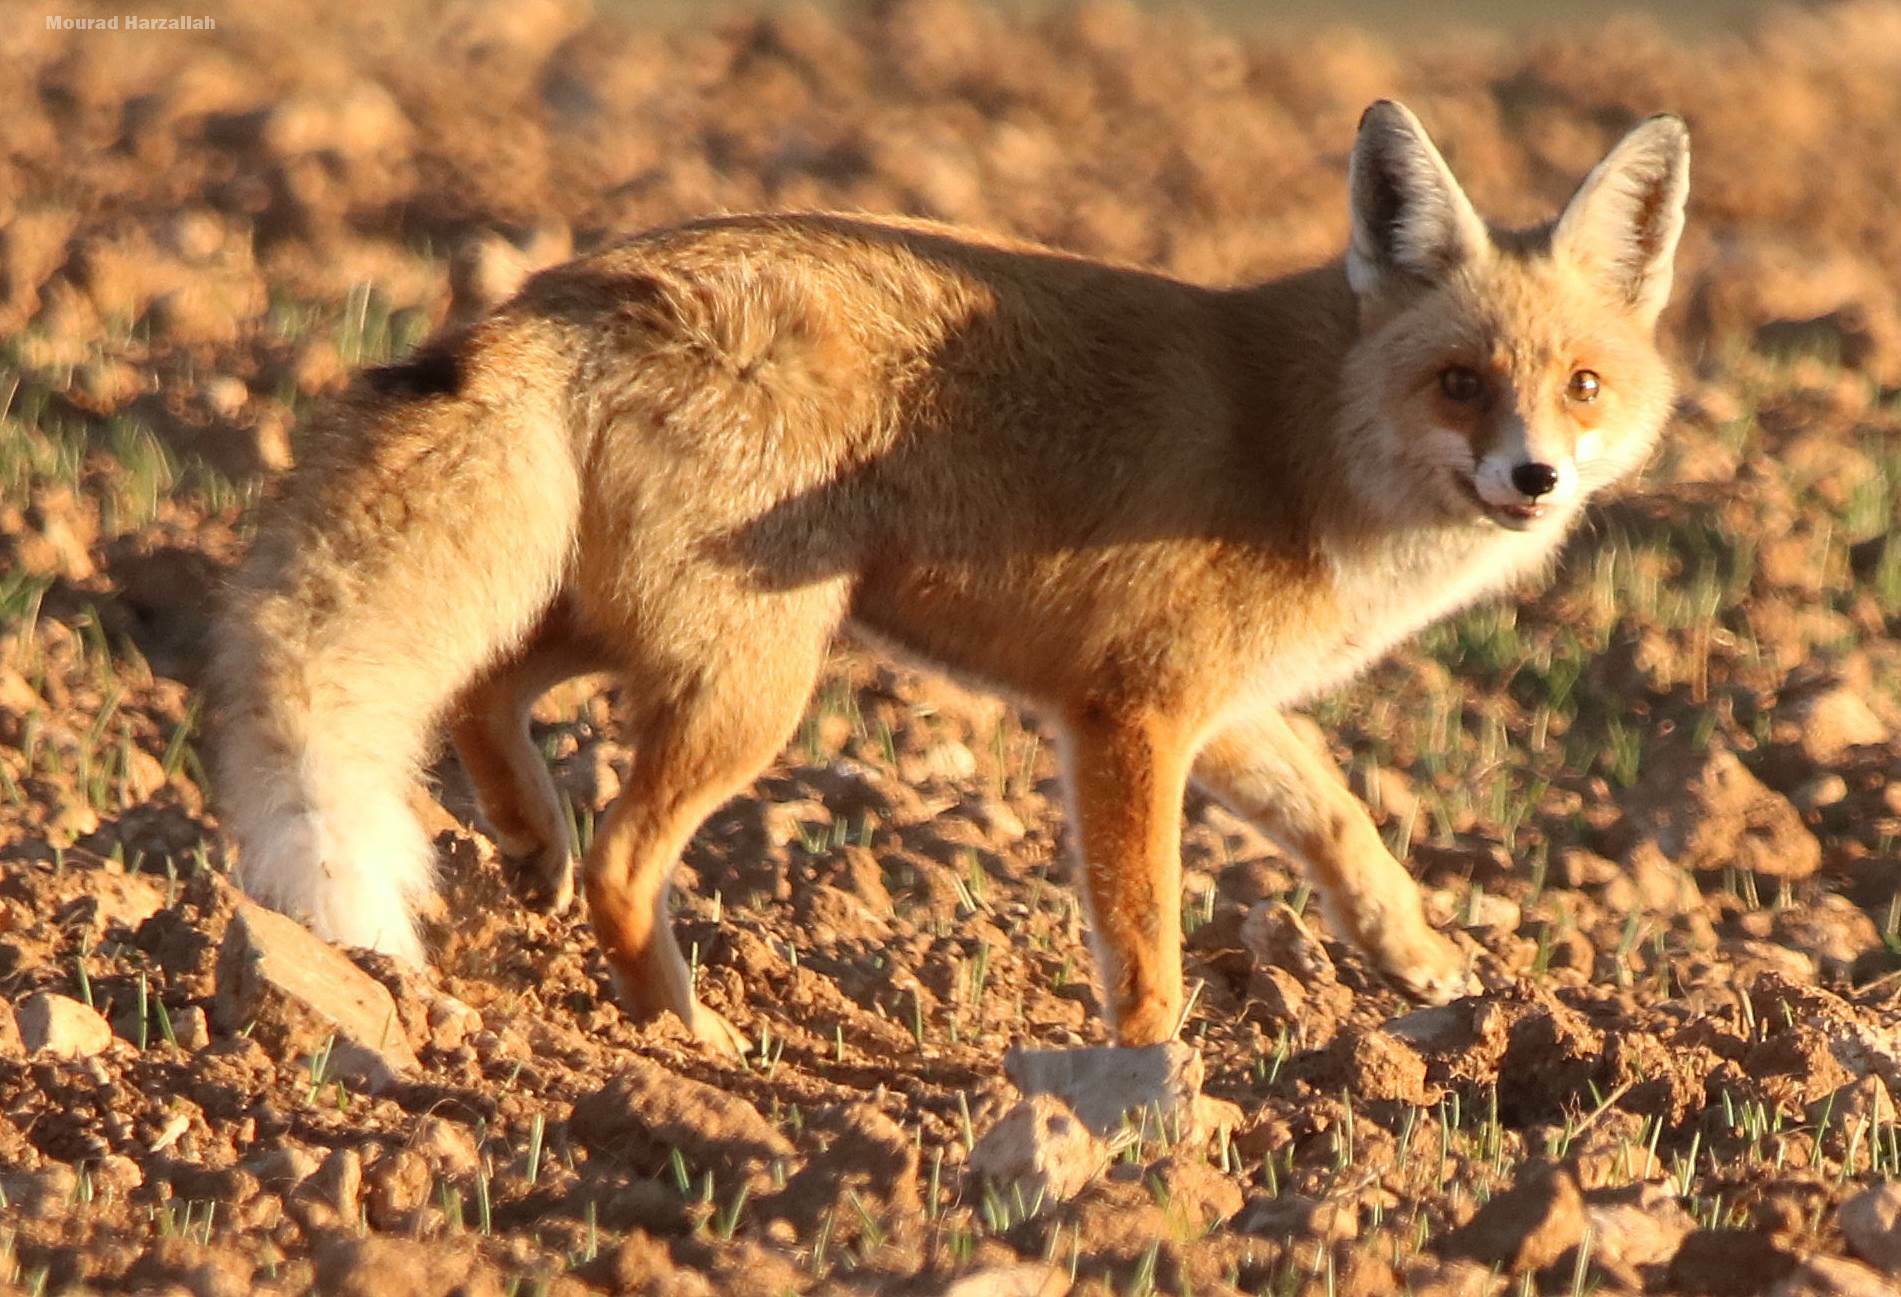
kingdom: Animalia
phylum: Chordata
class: Mammalia
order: Carnivora
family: Canidae
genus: Vulpes
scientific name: Vulpes vulpes
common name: Red fox
